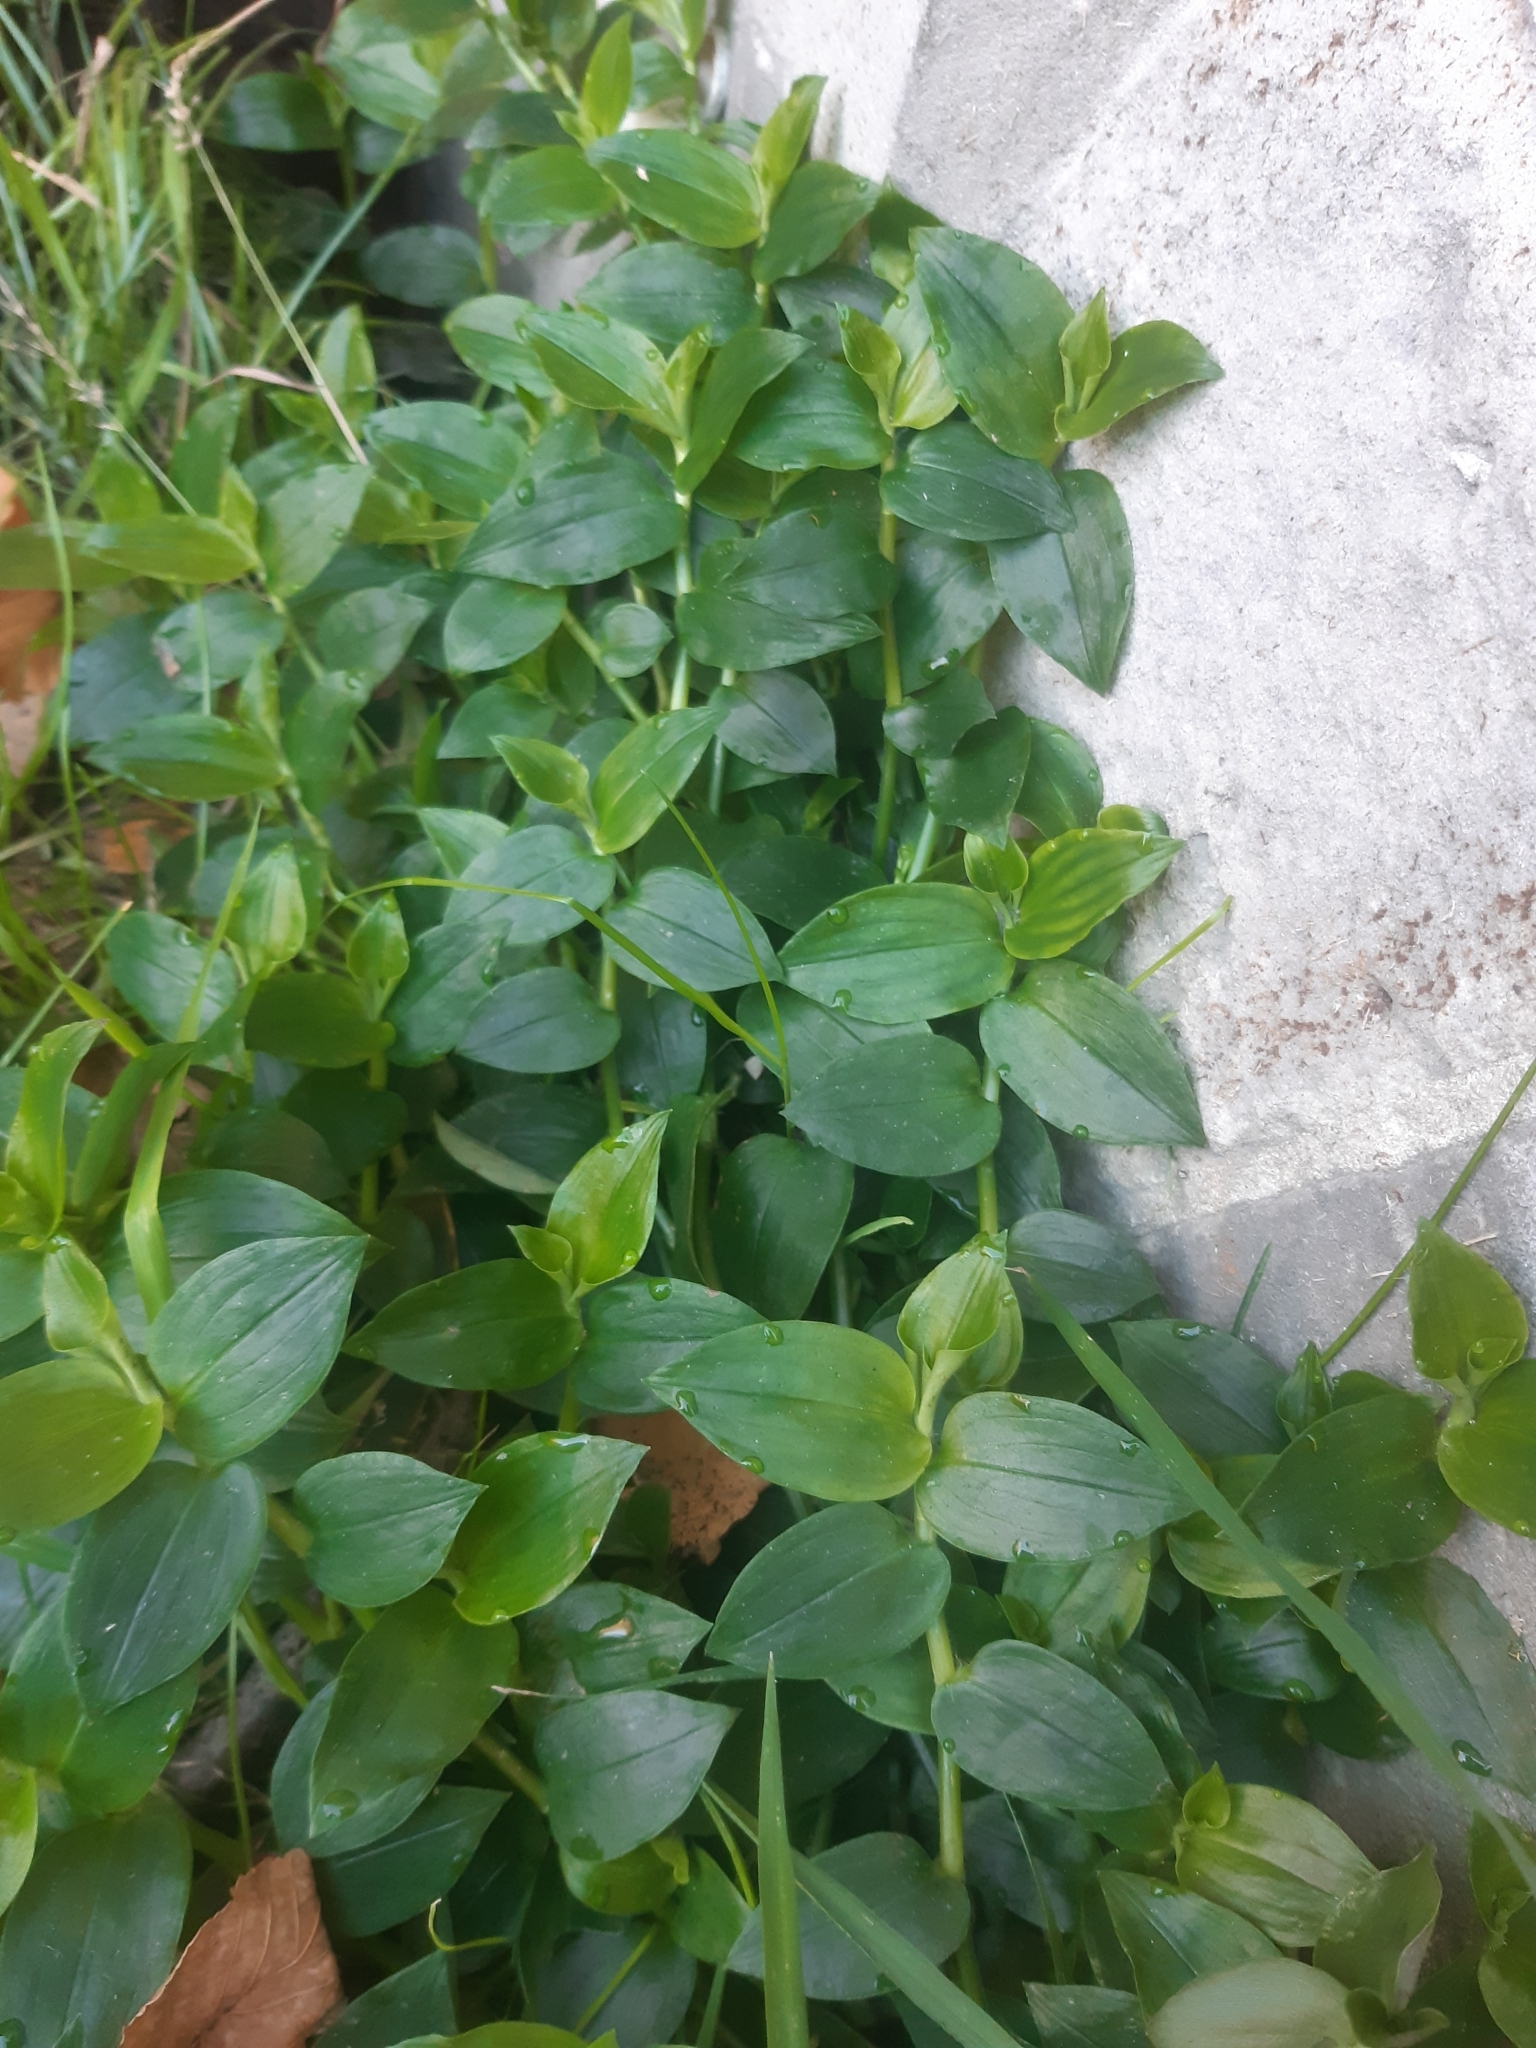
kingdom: Plantae
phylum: Tracheophyta
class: Liliopsida
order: Commelinales
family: Commelinaceae
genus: Tradescantia
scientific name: Tradescantia fluminensis
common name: Wandering-jew
